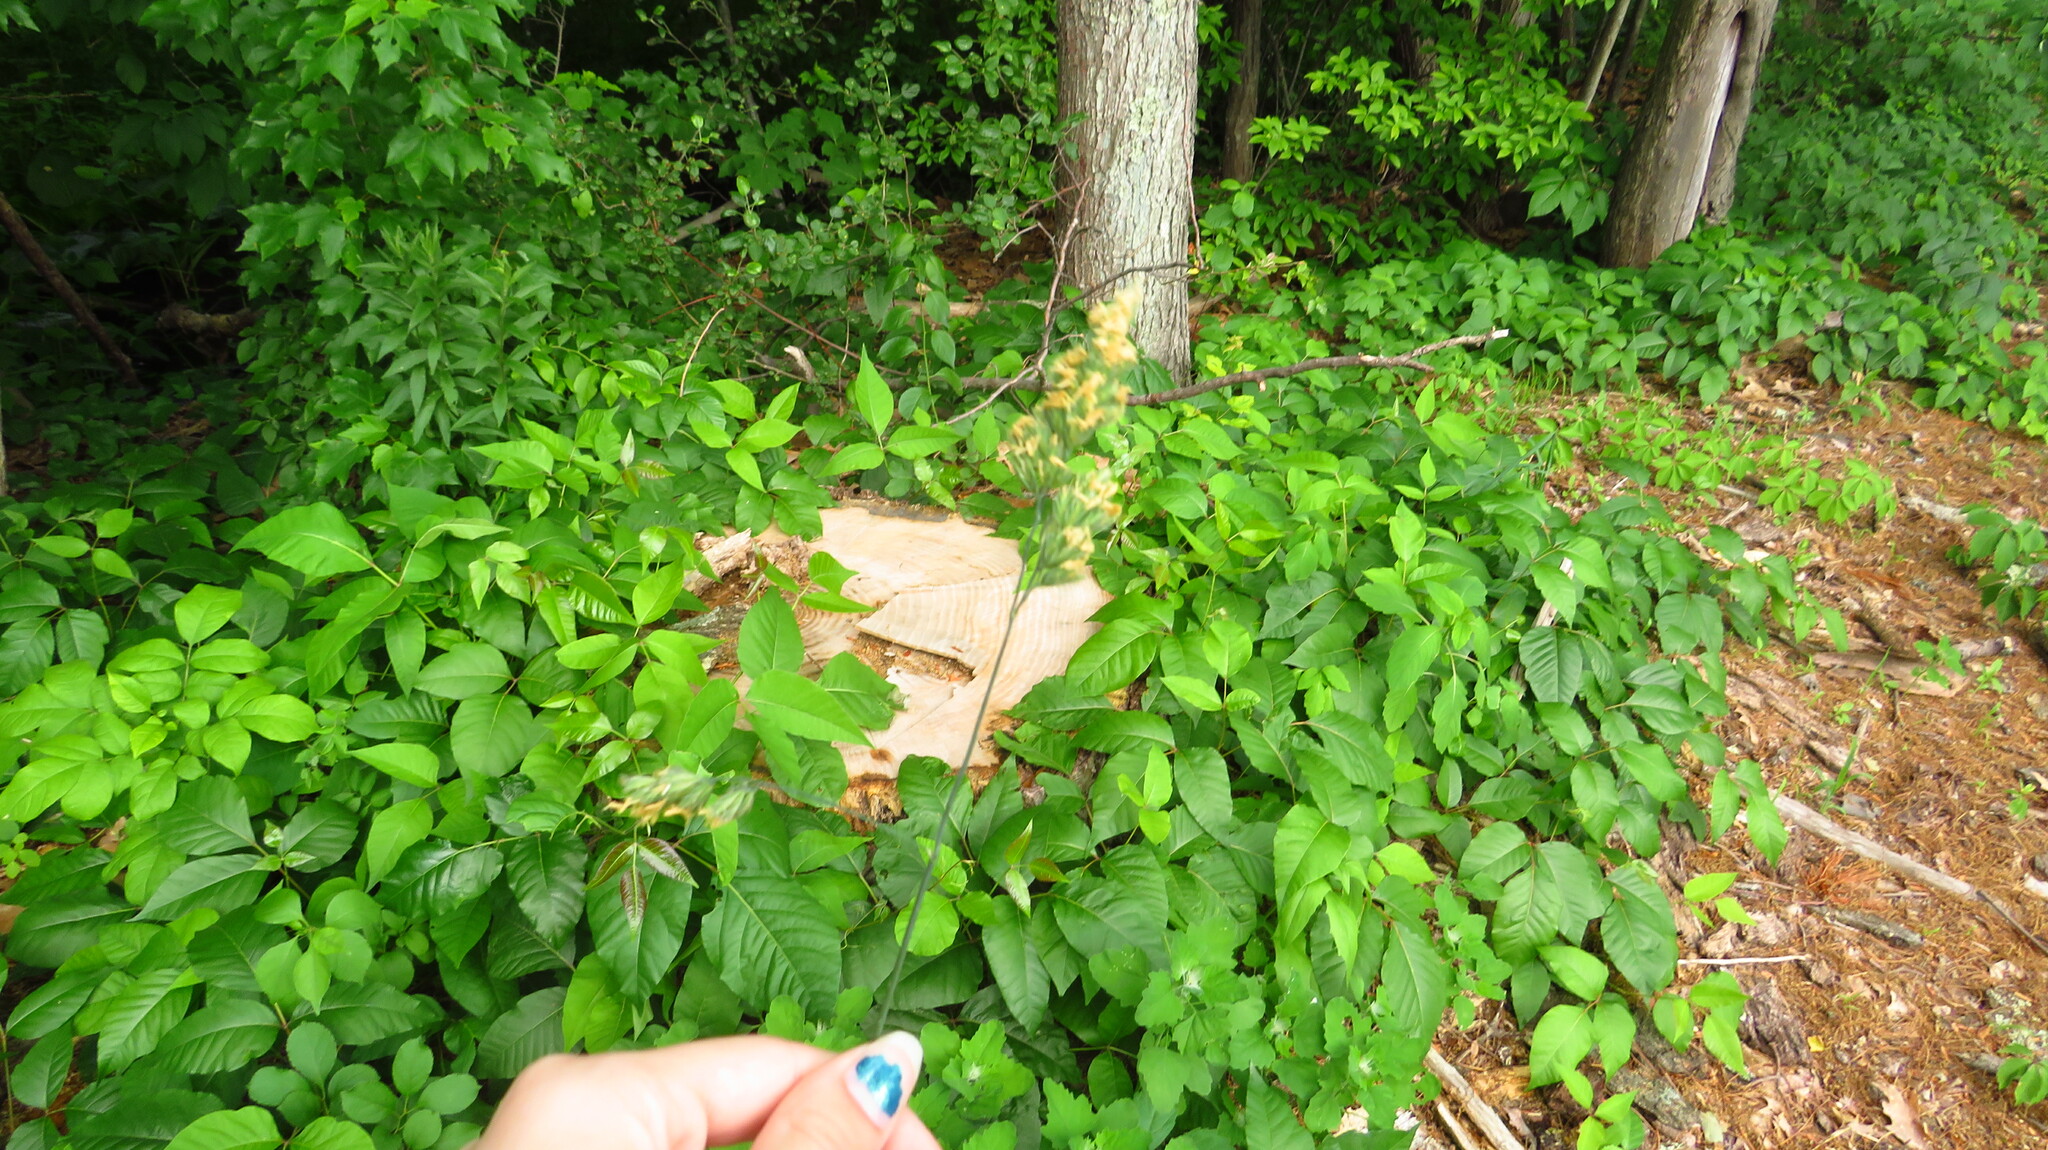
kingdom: Plantae
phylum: Tracheophyta
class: Liliopsida
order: Poales
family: Poaceae
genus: Dactylis
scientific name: Dactylis glomerata
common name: Orchardgrass
